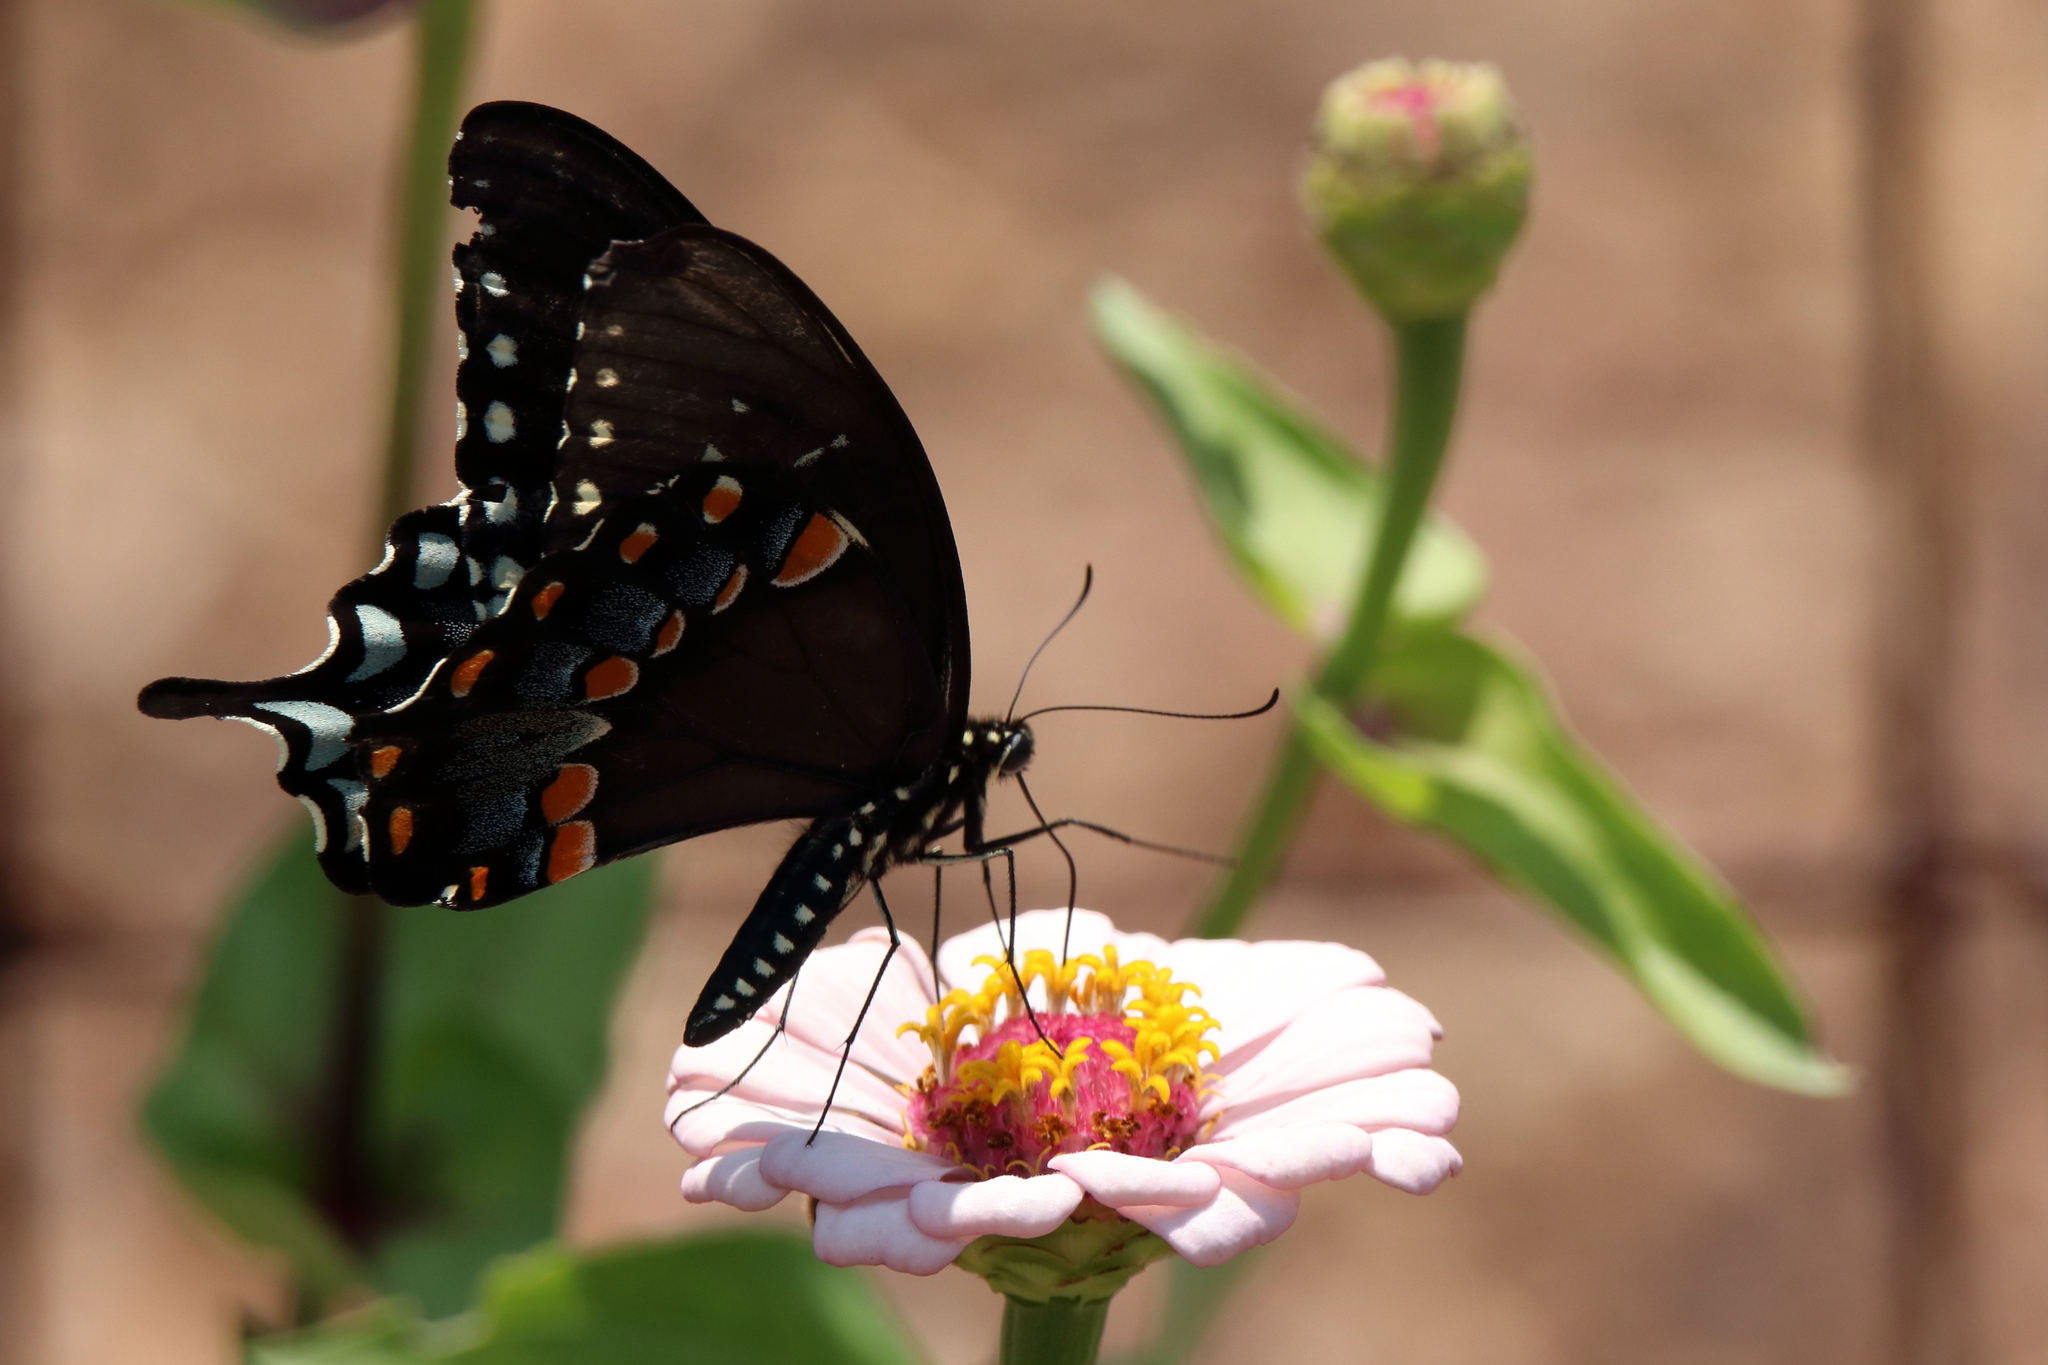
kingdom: Animalia
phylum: Arthropoda
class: Insecta
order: Lepidoptera
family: Papilionidae
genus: Papilio
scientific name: Papilio troilus
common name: Spicebush swallowtail
